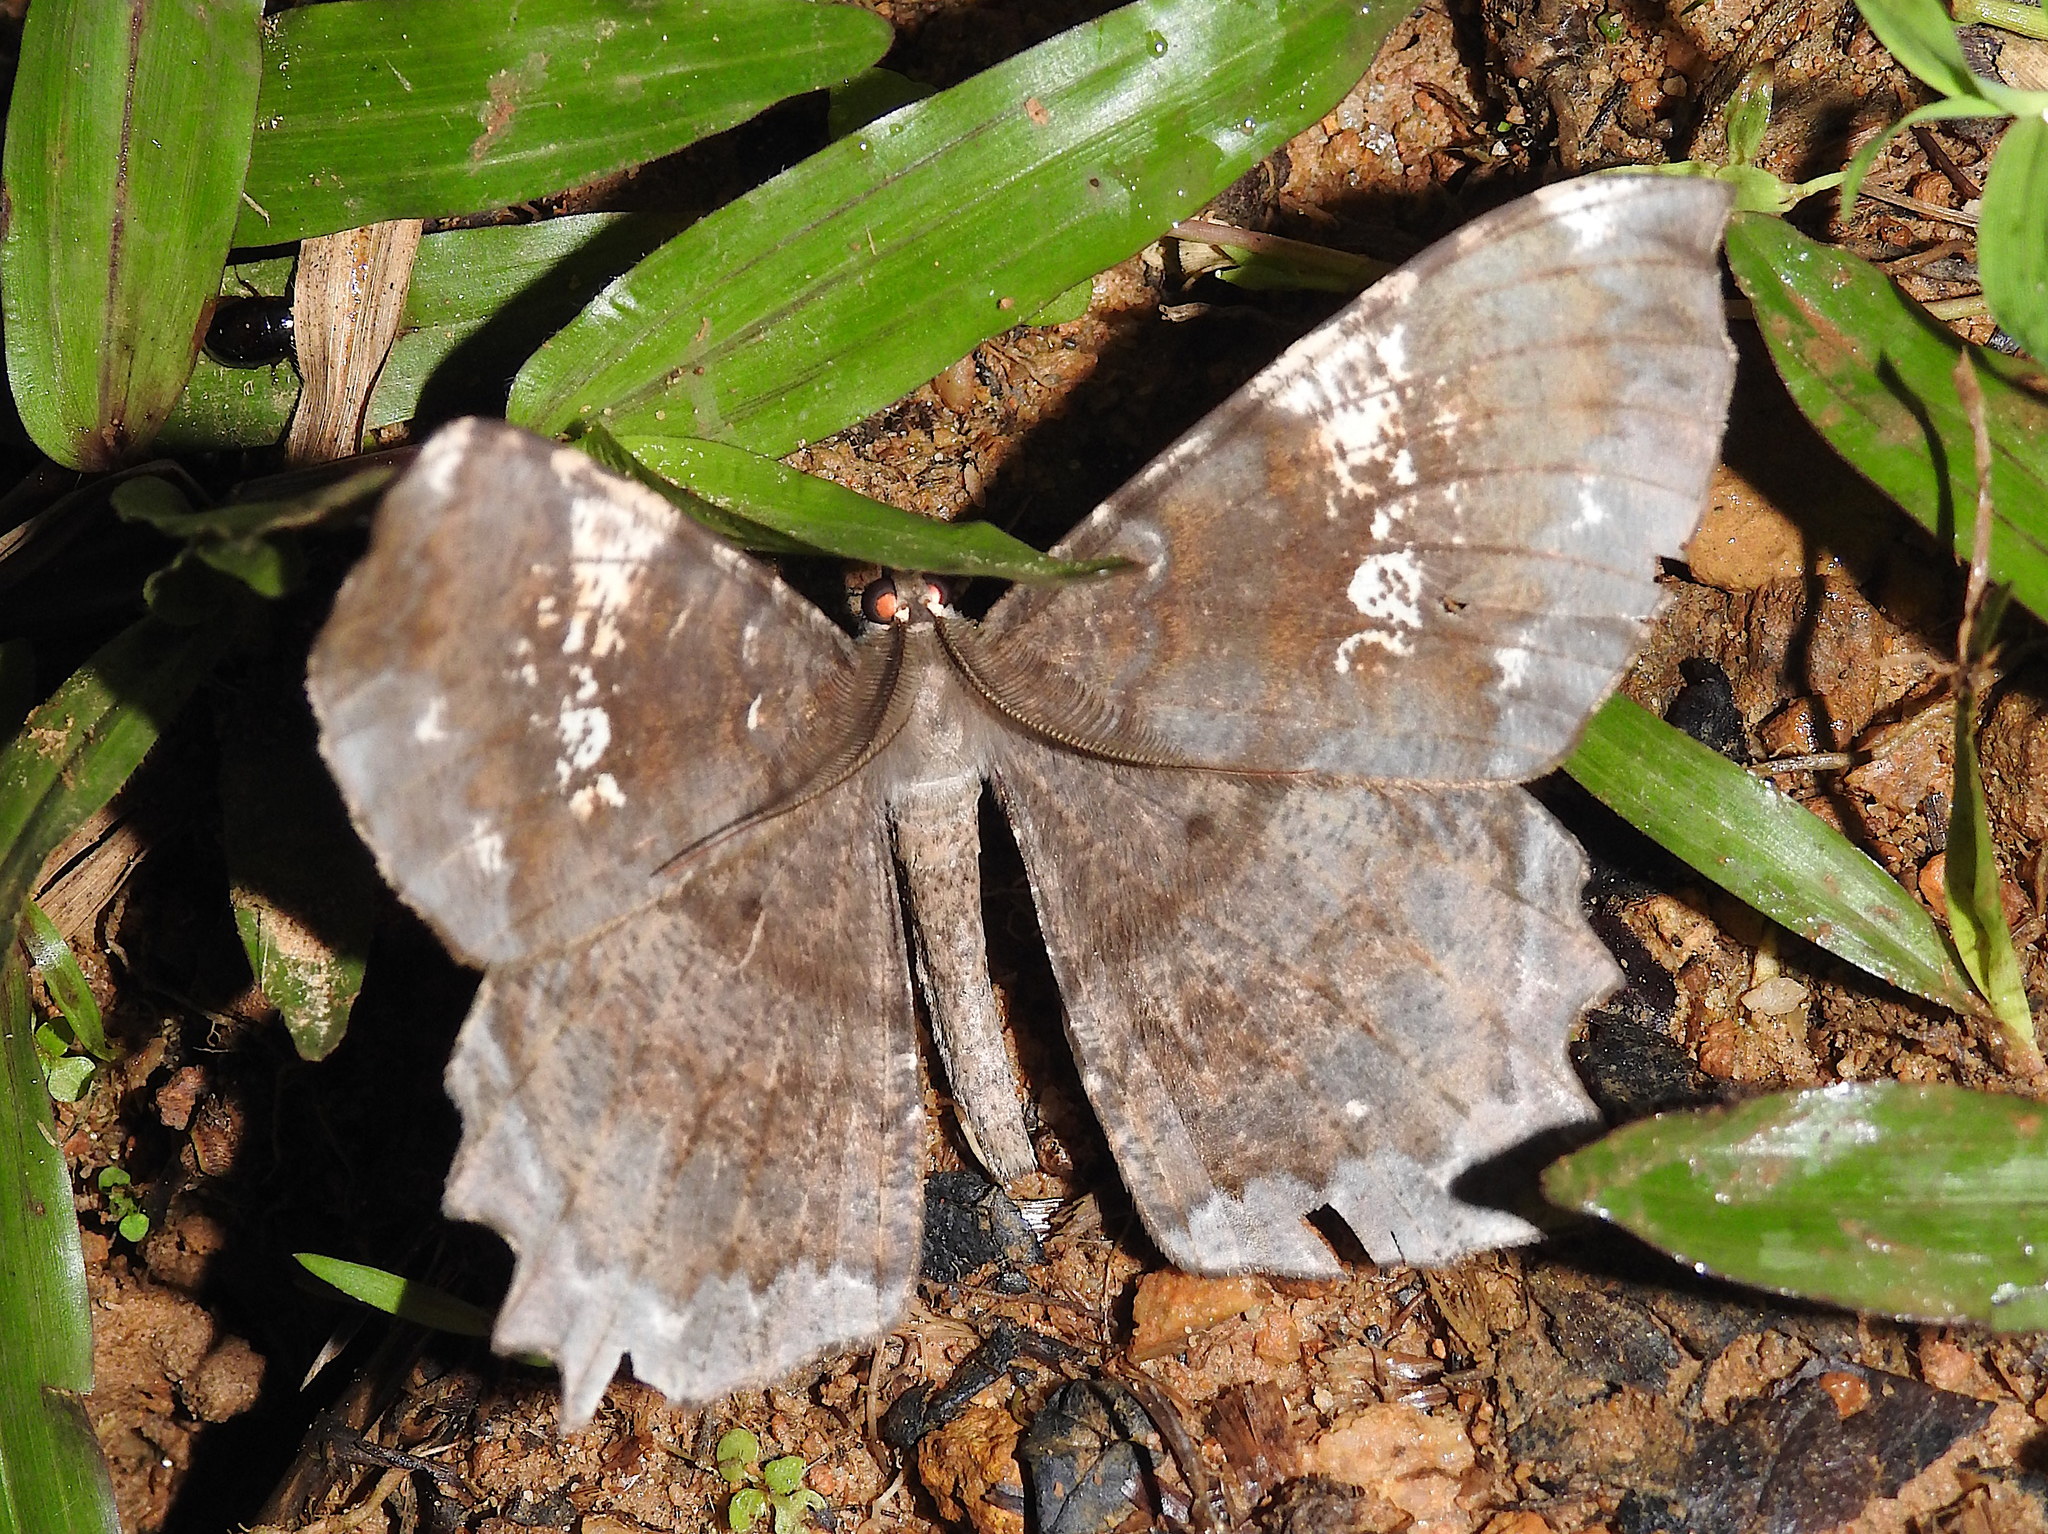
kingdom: Animalia
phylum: Arthropoda
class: Insecta
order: Lepidoptera
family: Geometridae
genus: Amblychia
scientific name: Amblychia angeronaria
